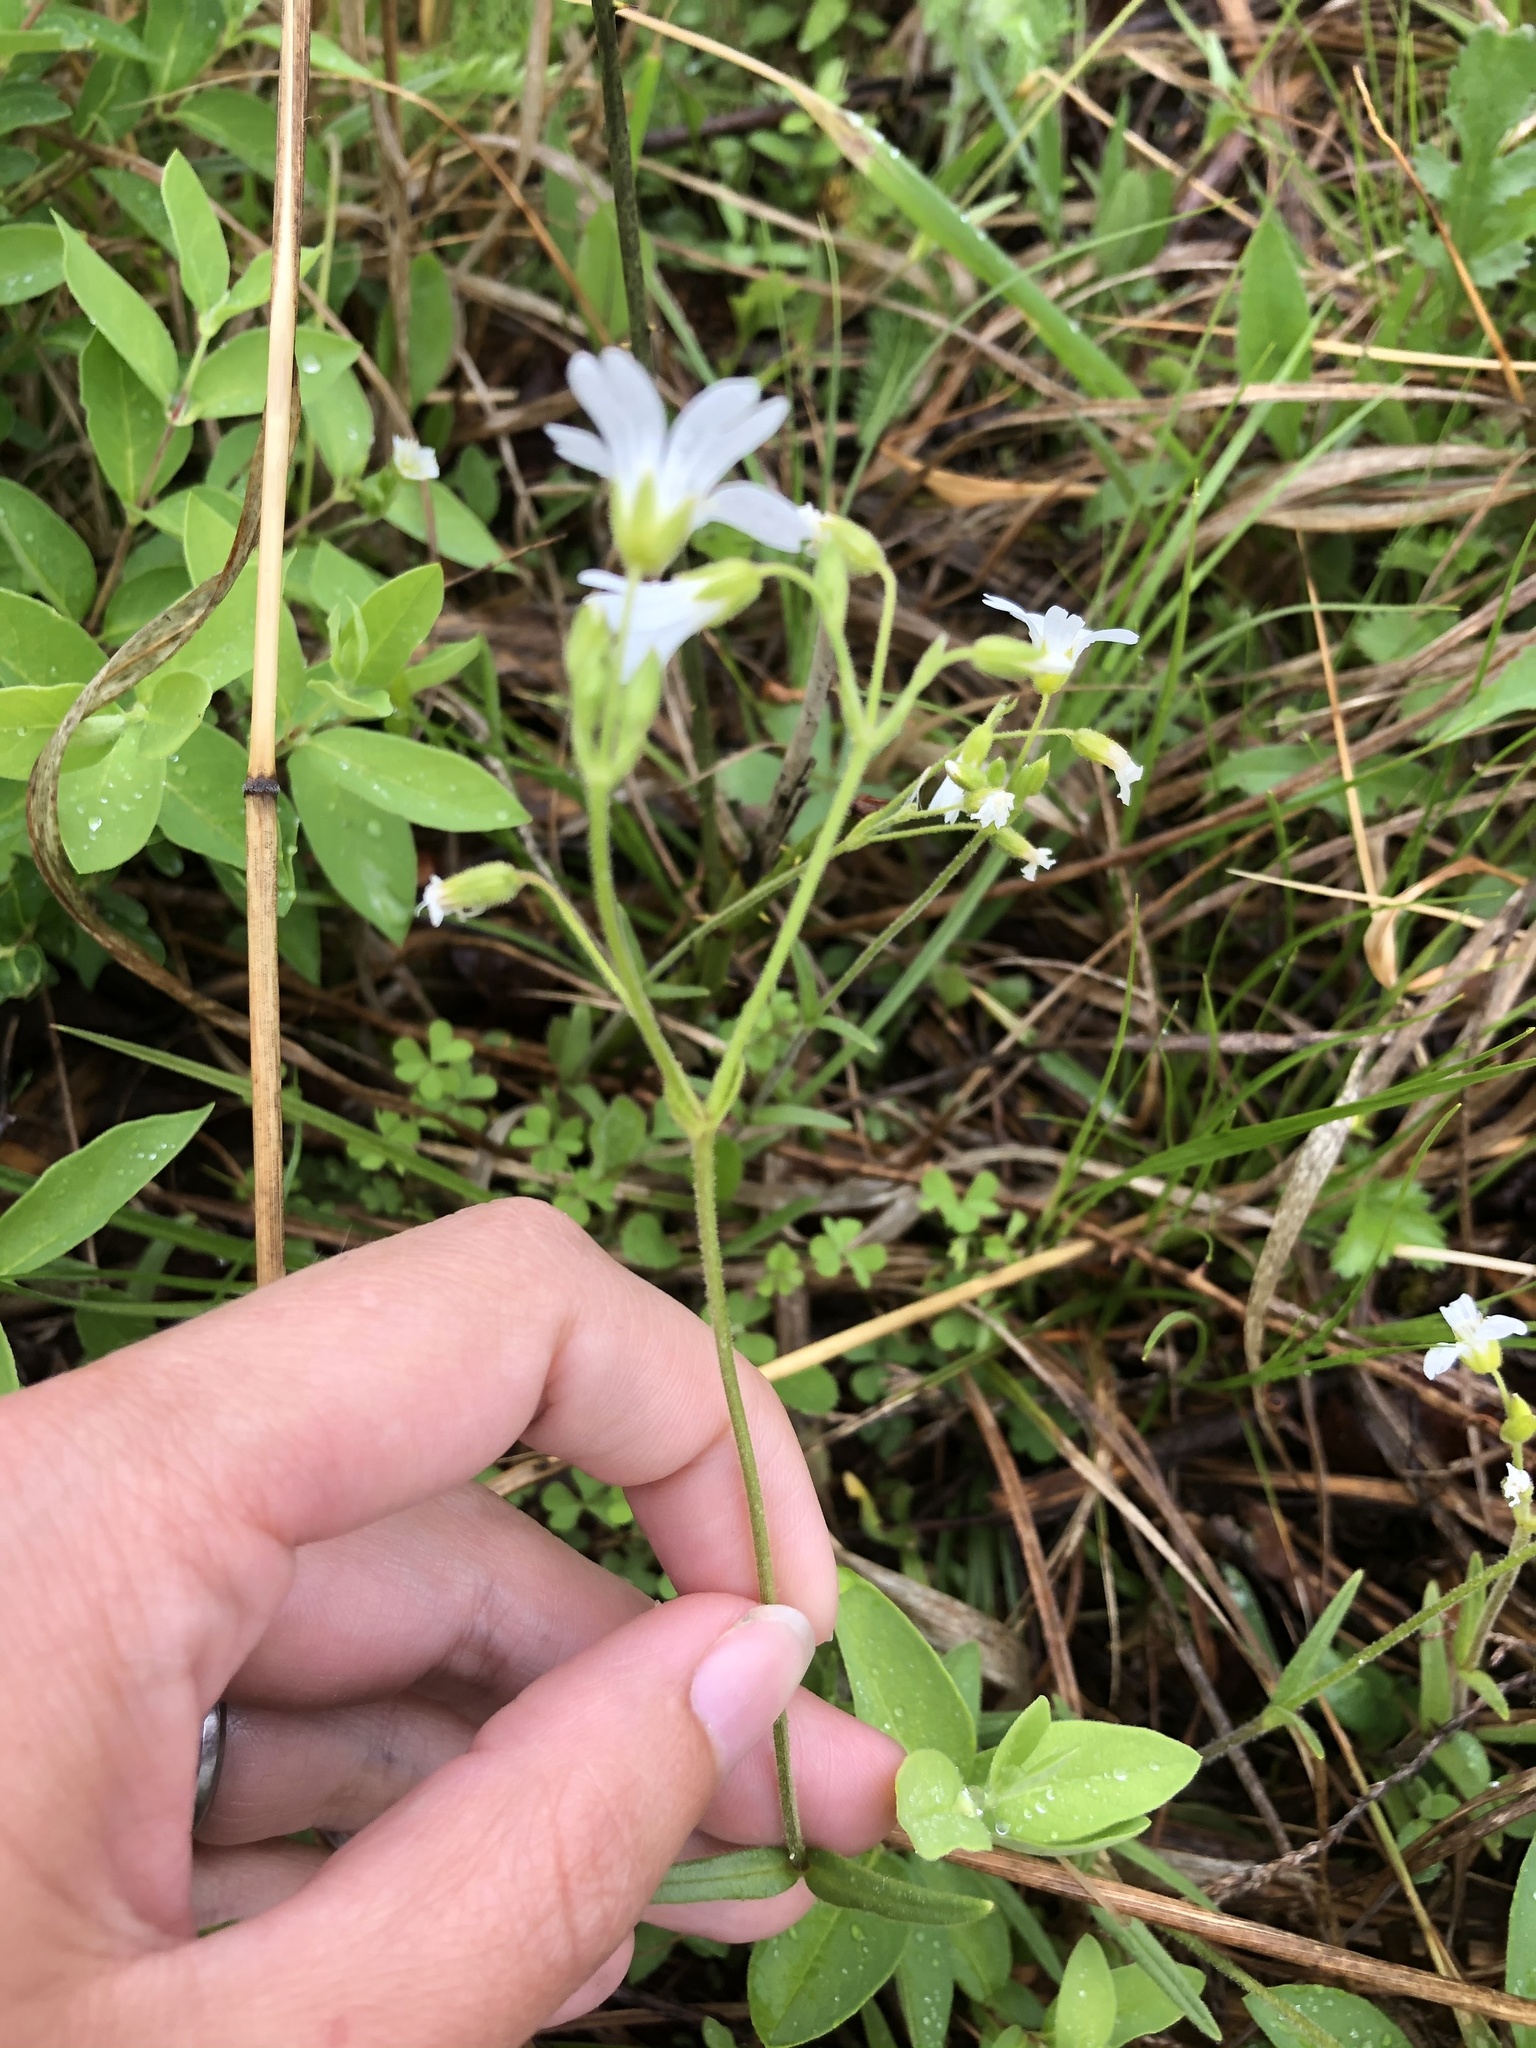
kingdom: Plantae
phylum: Tracheophyta
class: Magnoliopsida
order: Caryophyllales
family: Caryophyllaceae
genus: Cerastium
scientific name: Cerastium arvense
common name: Field mouse-ear
